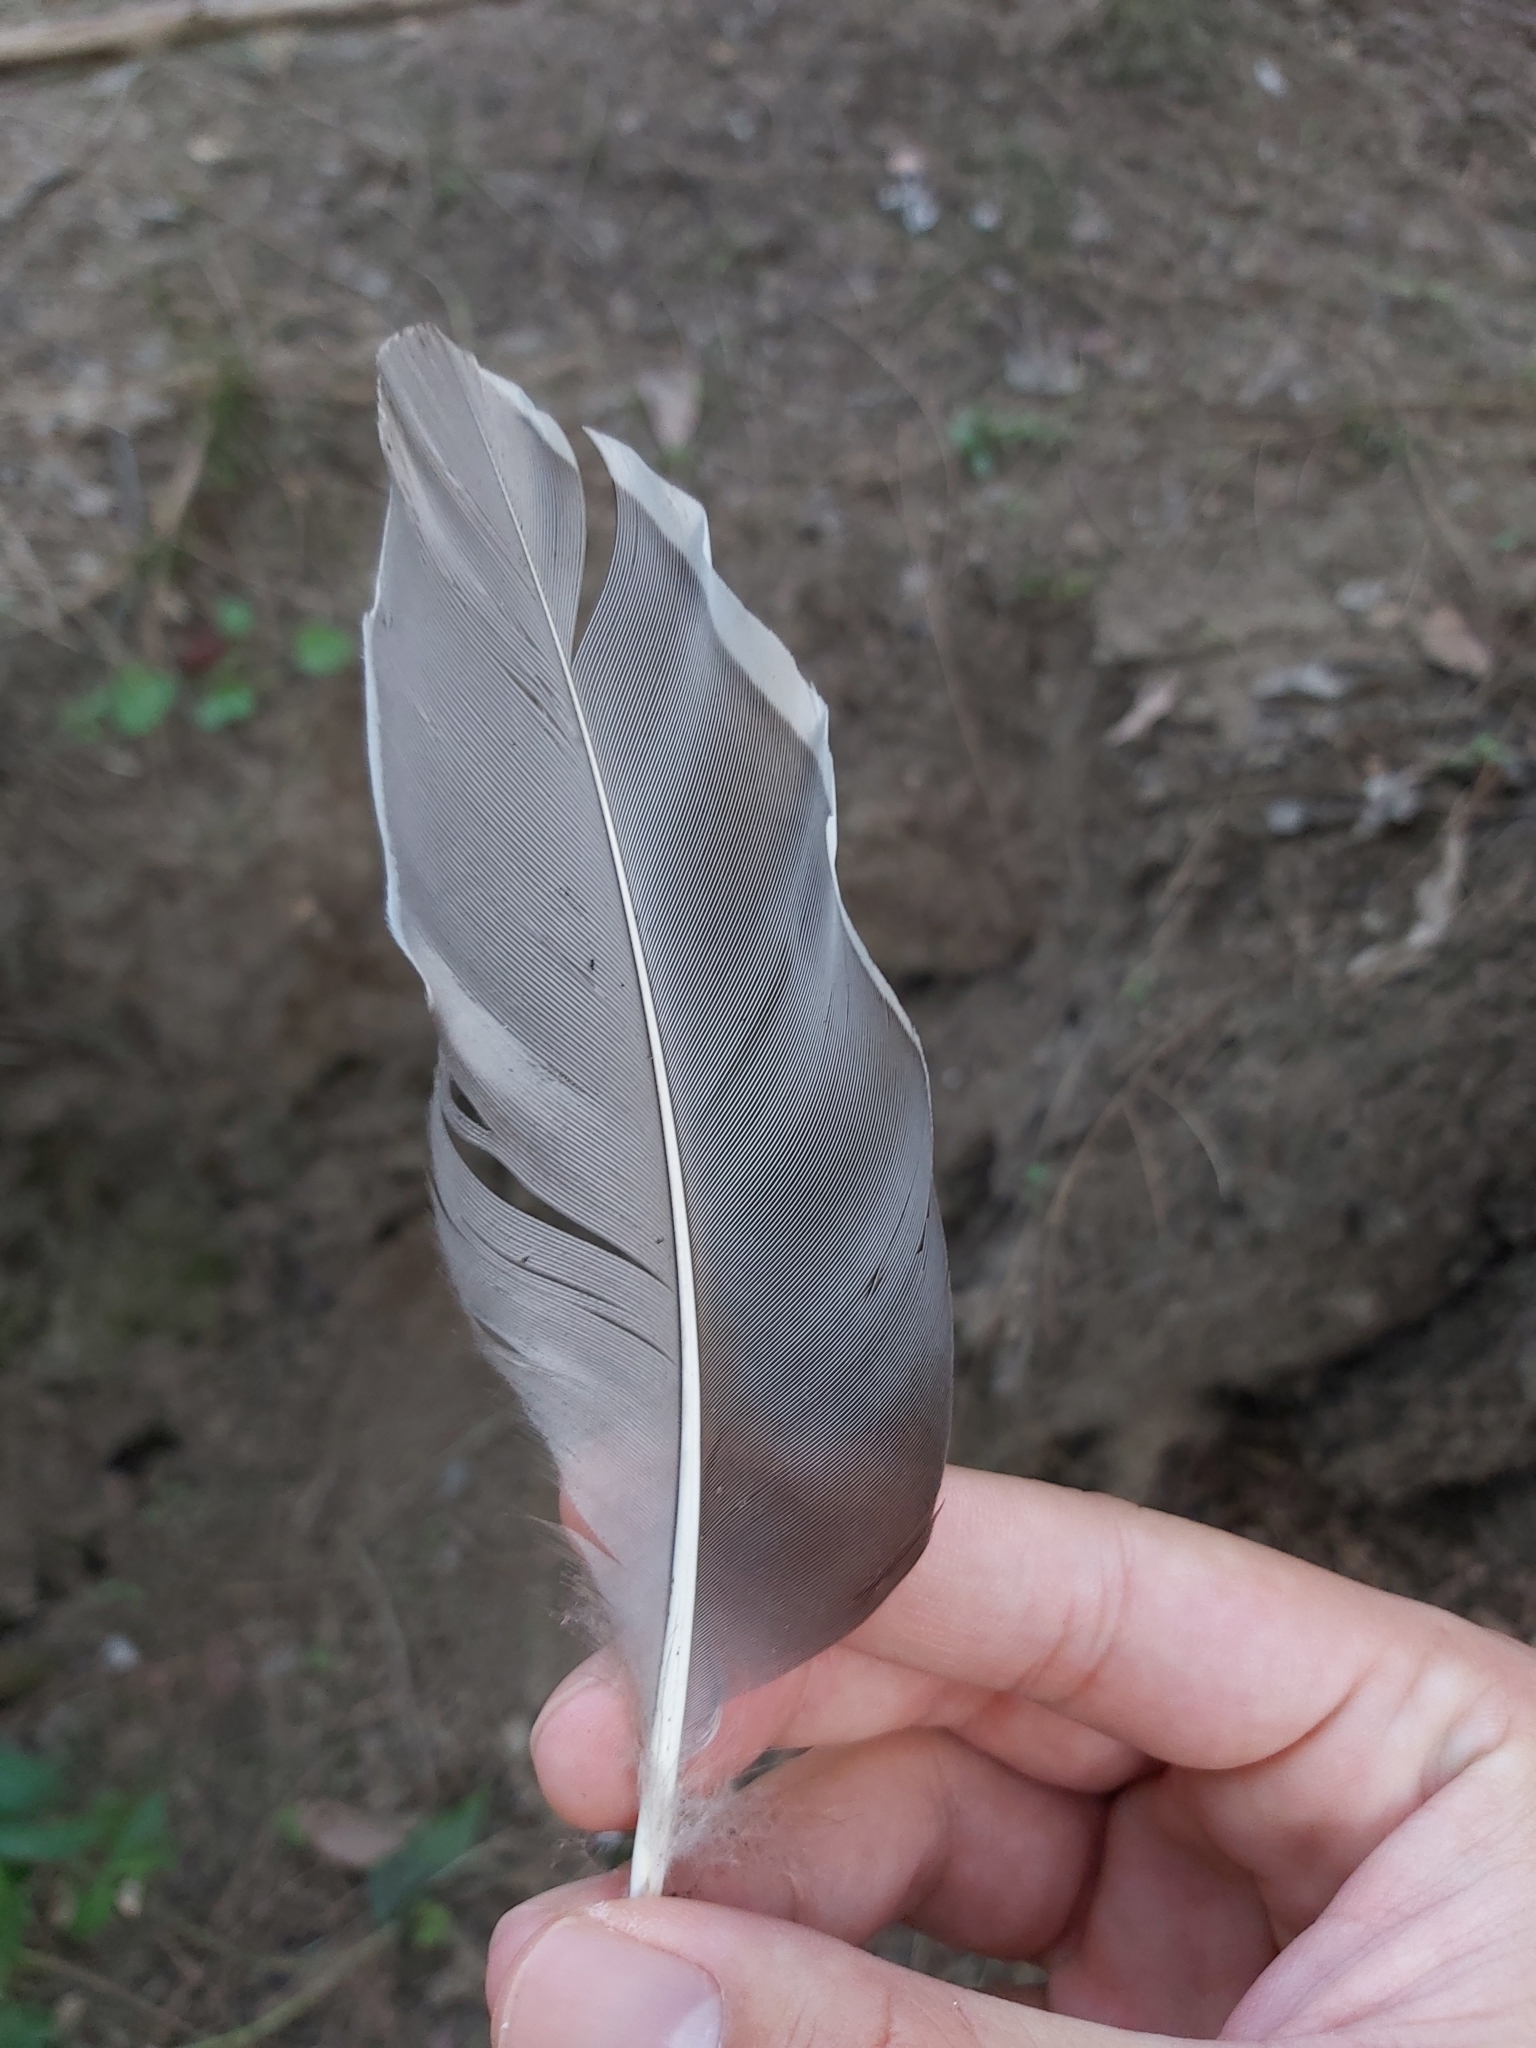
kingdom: Animalia
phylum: Chordata
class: Aves
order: Anseriformes
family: Anatidae
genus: Chenonetta
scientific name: Chenonetta jubata
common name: Maned duck
